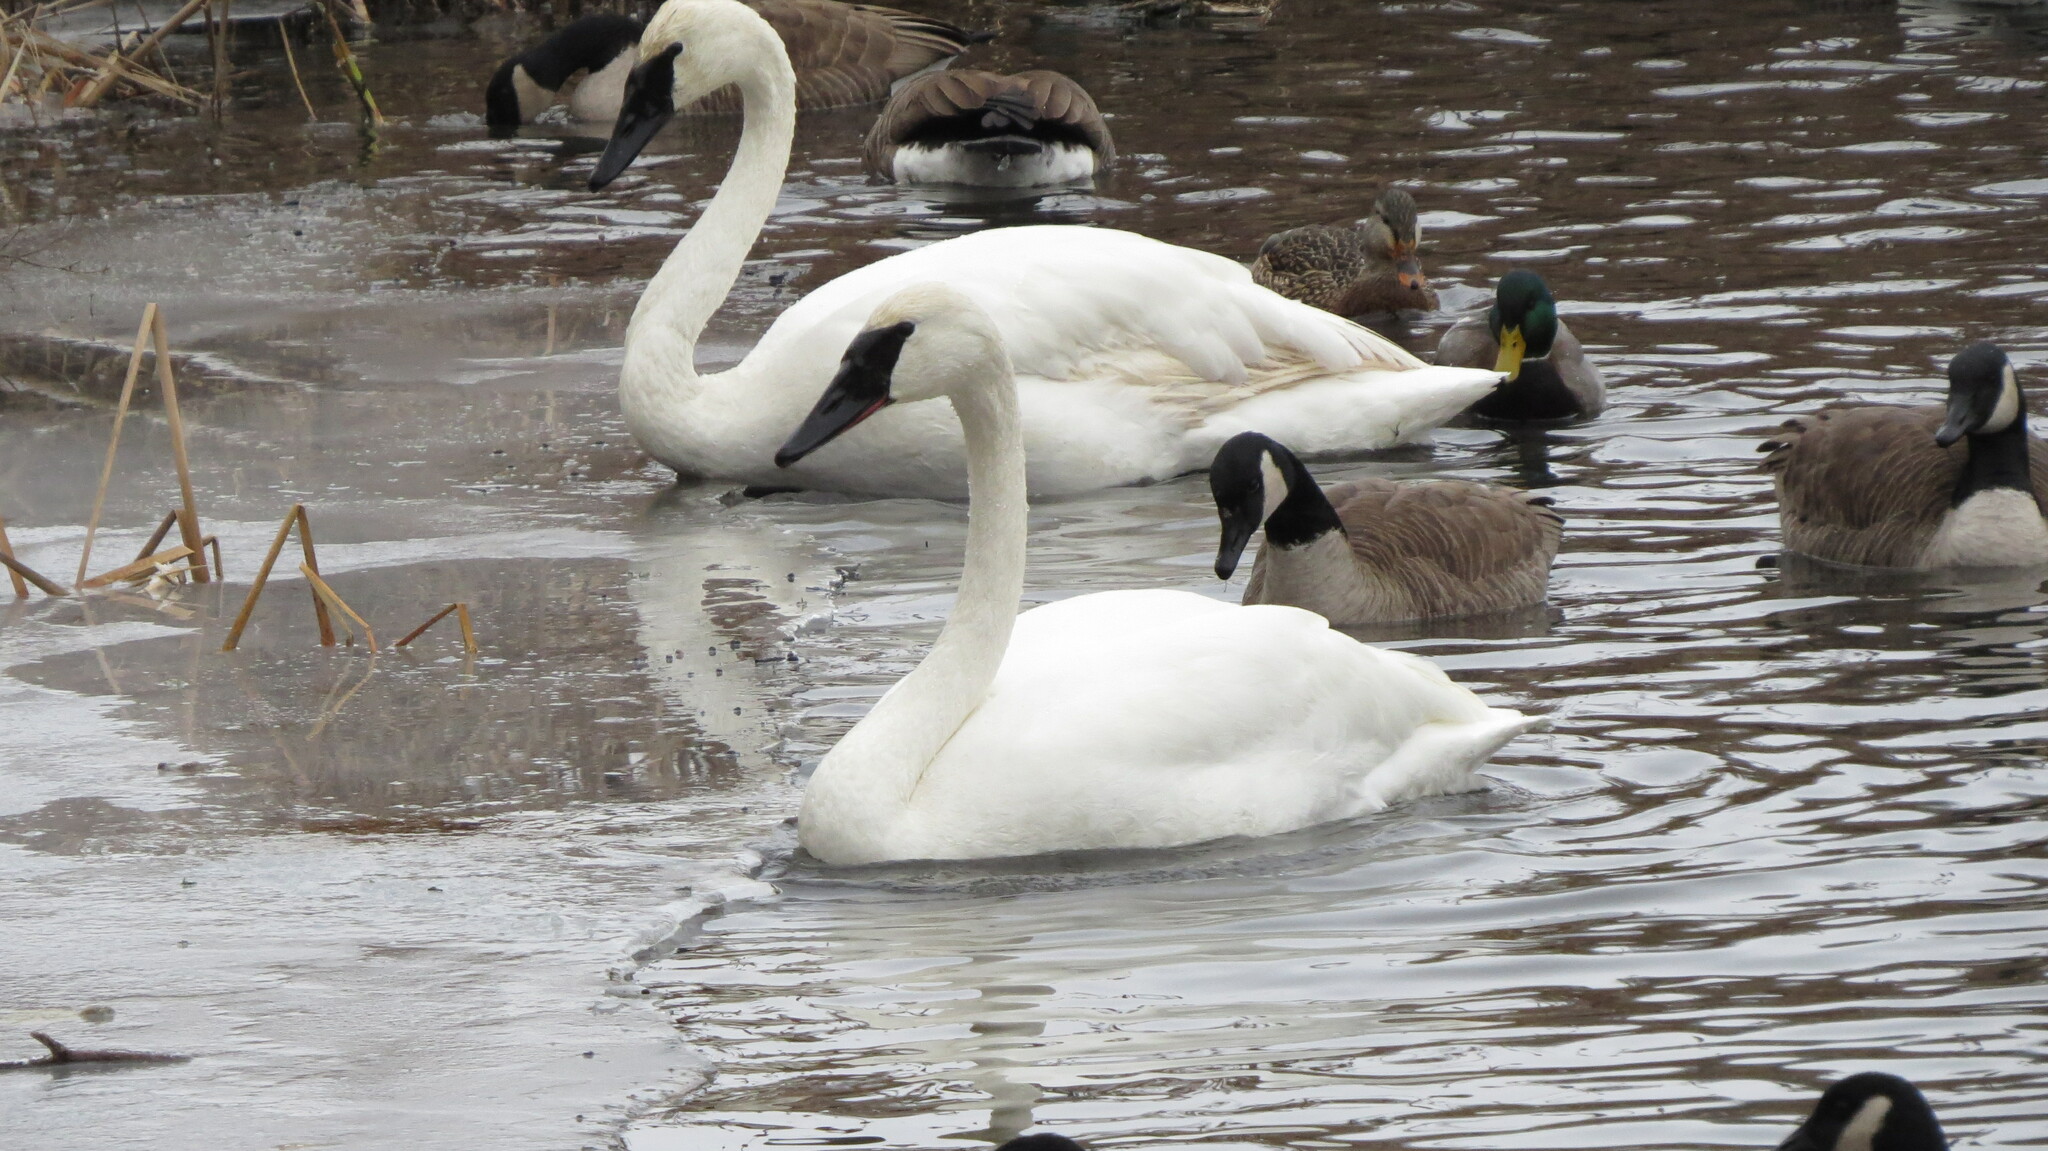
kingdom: Animalia
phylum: Chordata
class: Aves
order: Anseriformes
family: Anatidae
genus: Cygnus
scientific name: Cygnus buccinator
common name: Trumpeter swan
